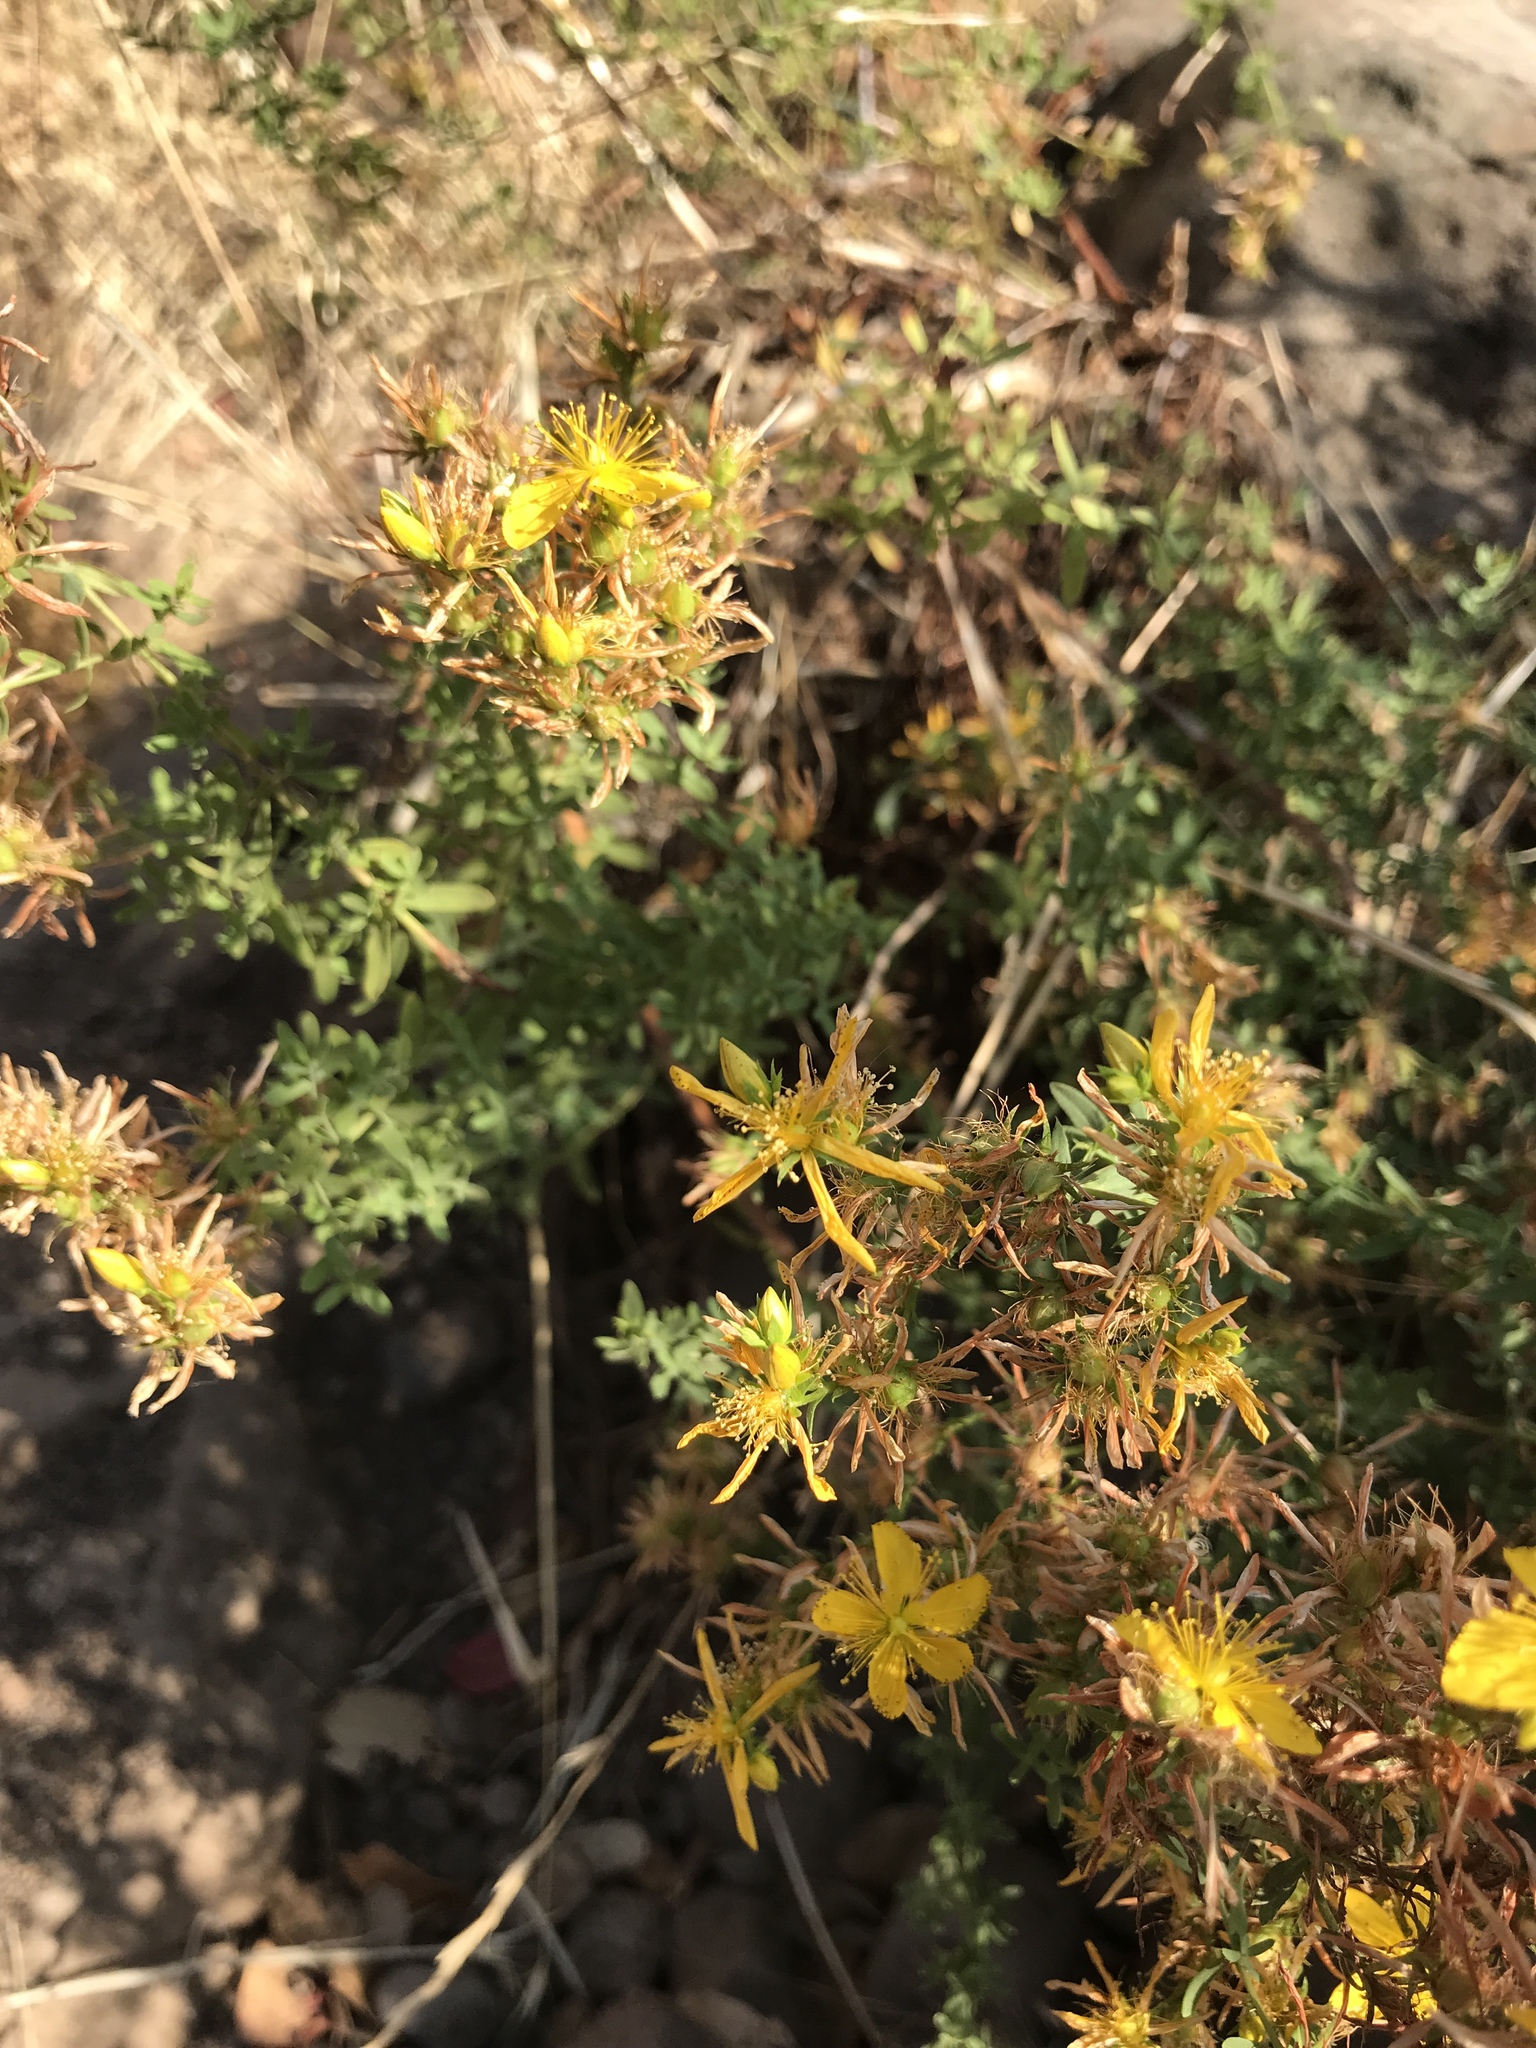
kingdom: Plantae
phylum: Tracheophyta
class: Magnoliopsida
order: Malpighiales
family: Hypericaceae
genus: Hypericum
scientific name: Hypericum perforatum
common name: Common st. johnswort
